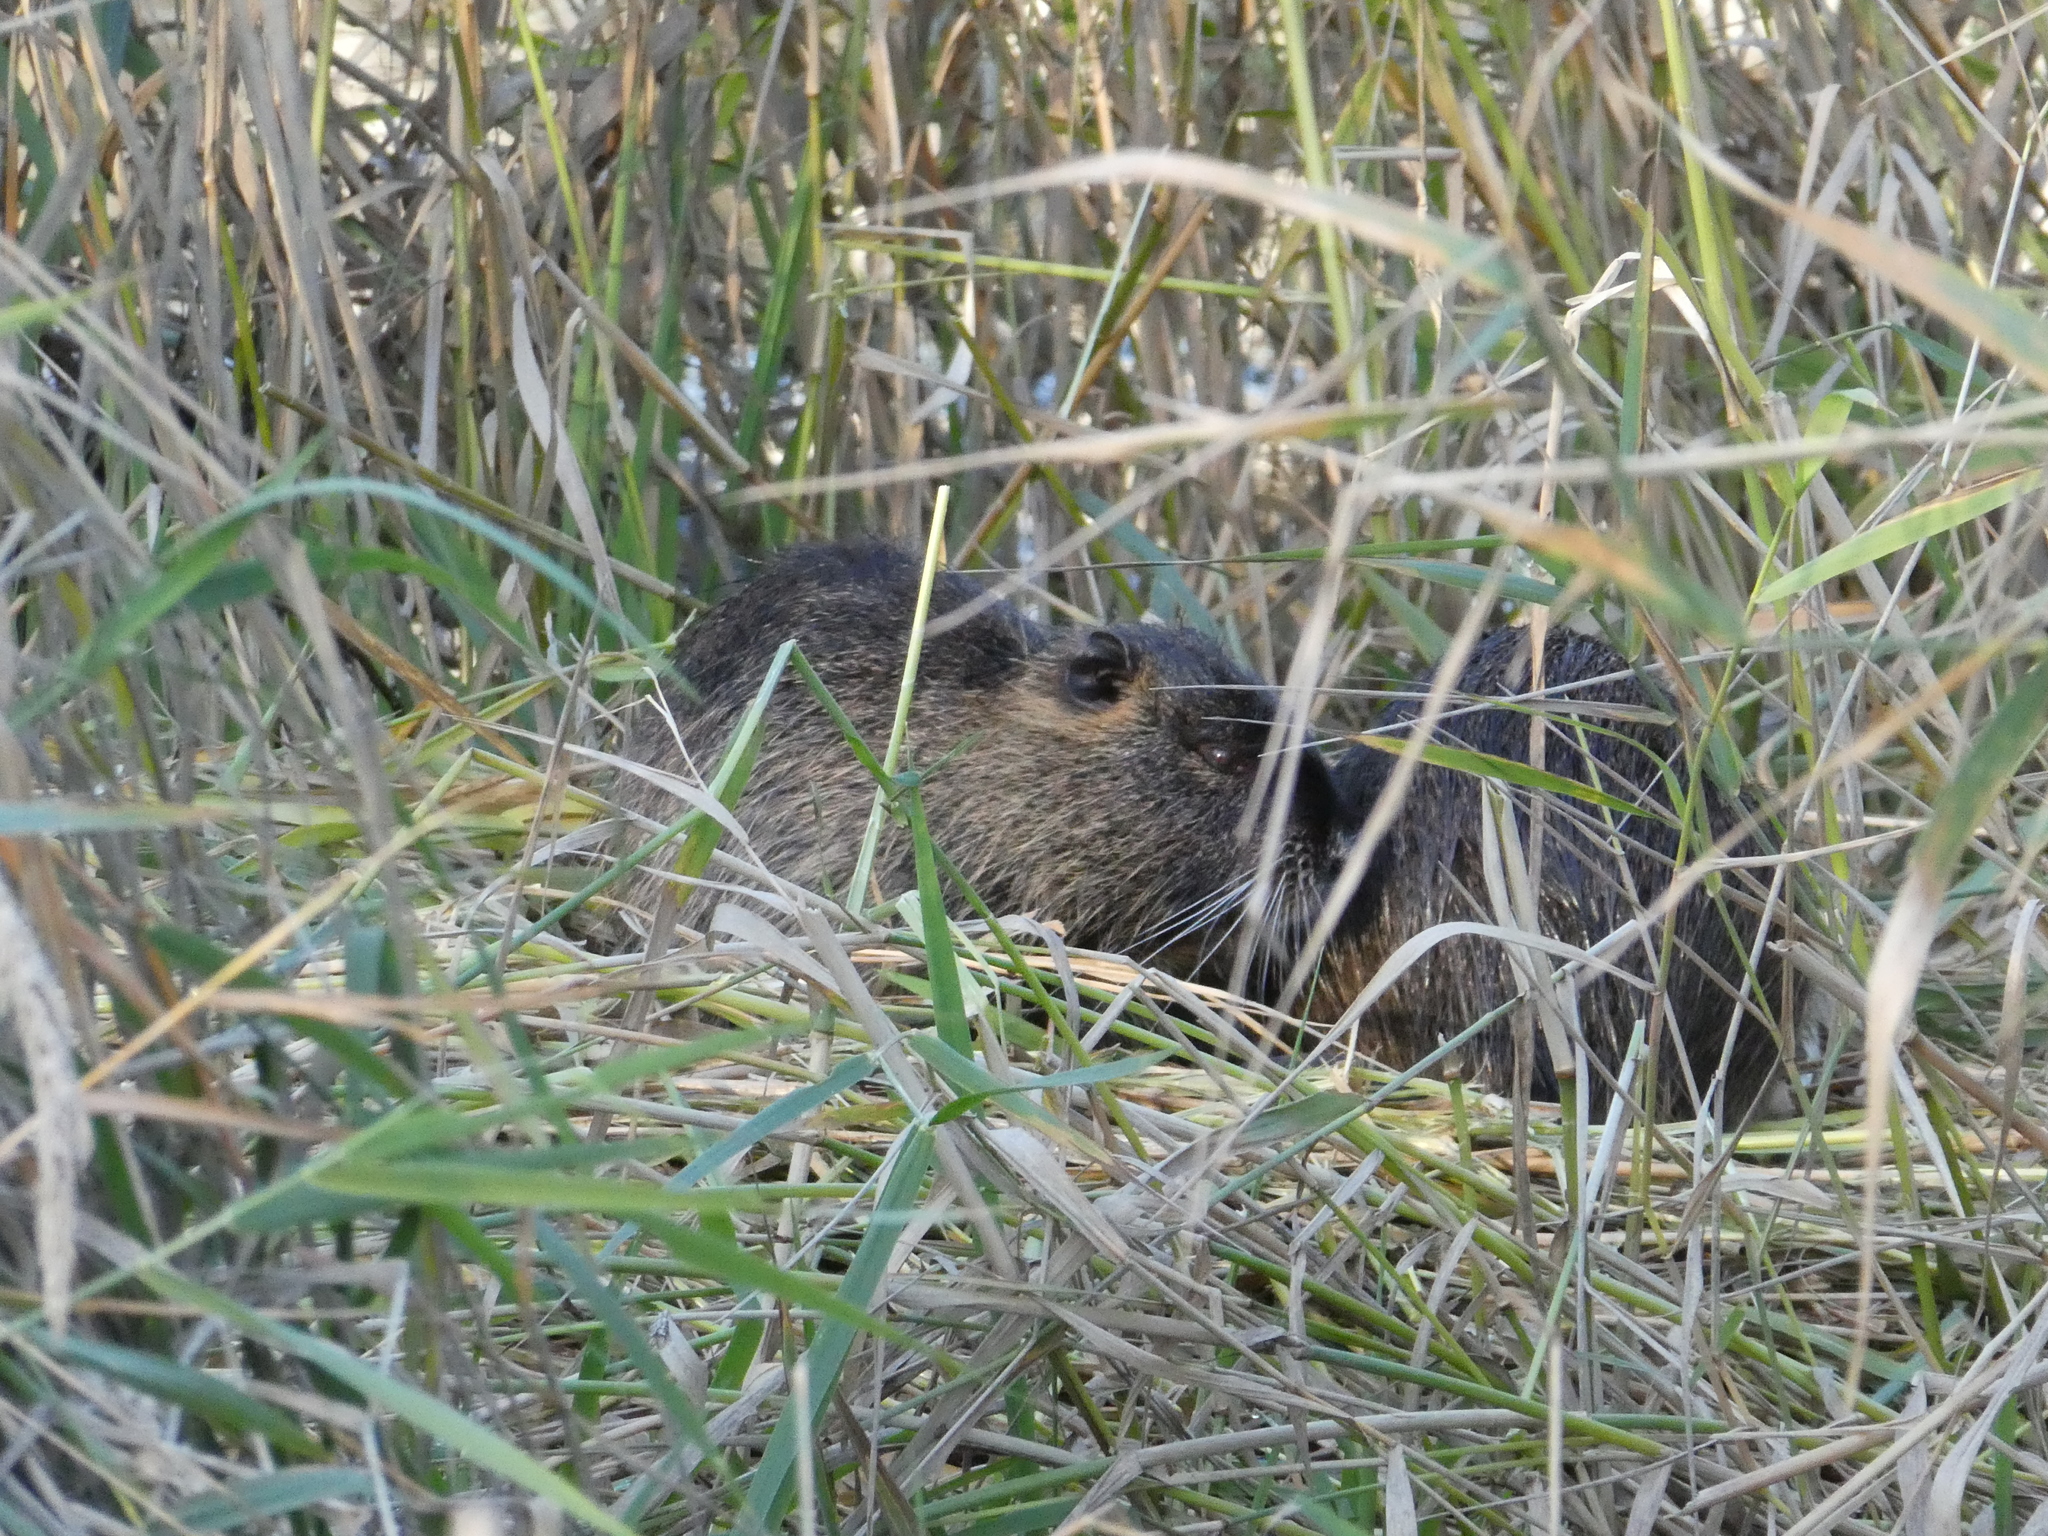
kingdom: Animalia
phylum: Chordata
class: Mammalia
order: Rodentia
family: Myocastoridae
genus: Myocastor
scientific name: Myocastor coypus
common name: Coypu
